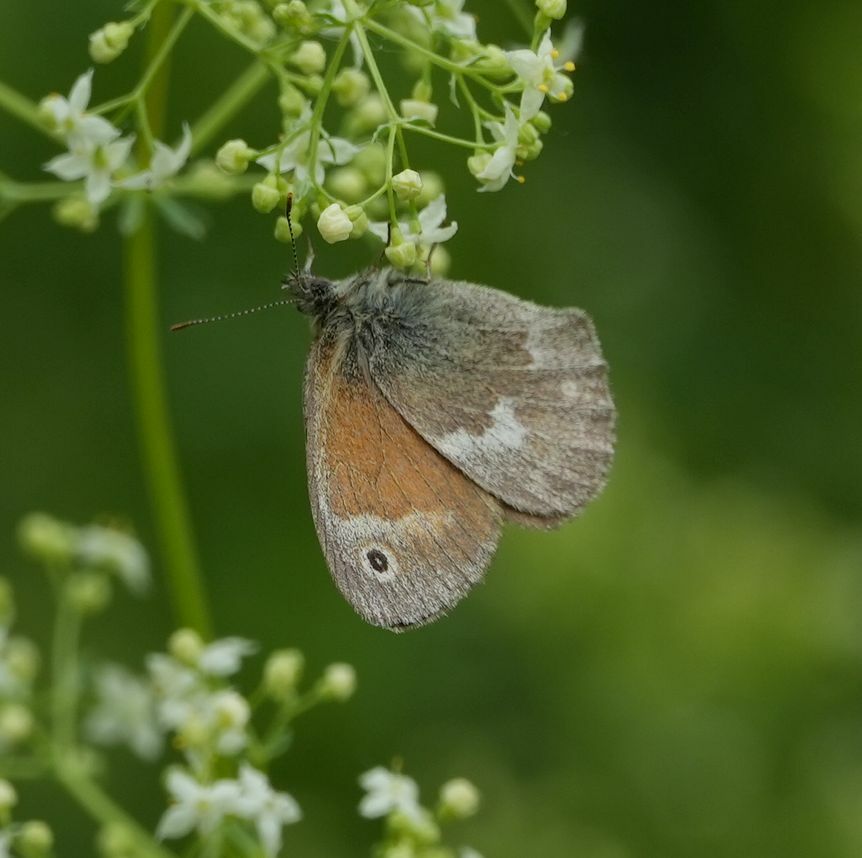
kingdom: Animalia
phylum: Arthropoda
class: Insecta
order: Lepidoptera
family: Nymphalidae
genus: Coenonympha
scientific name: Coenonympha california
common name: Common ringlet
